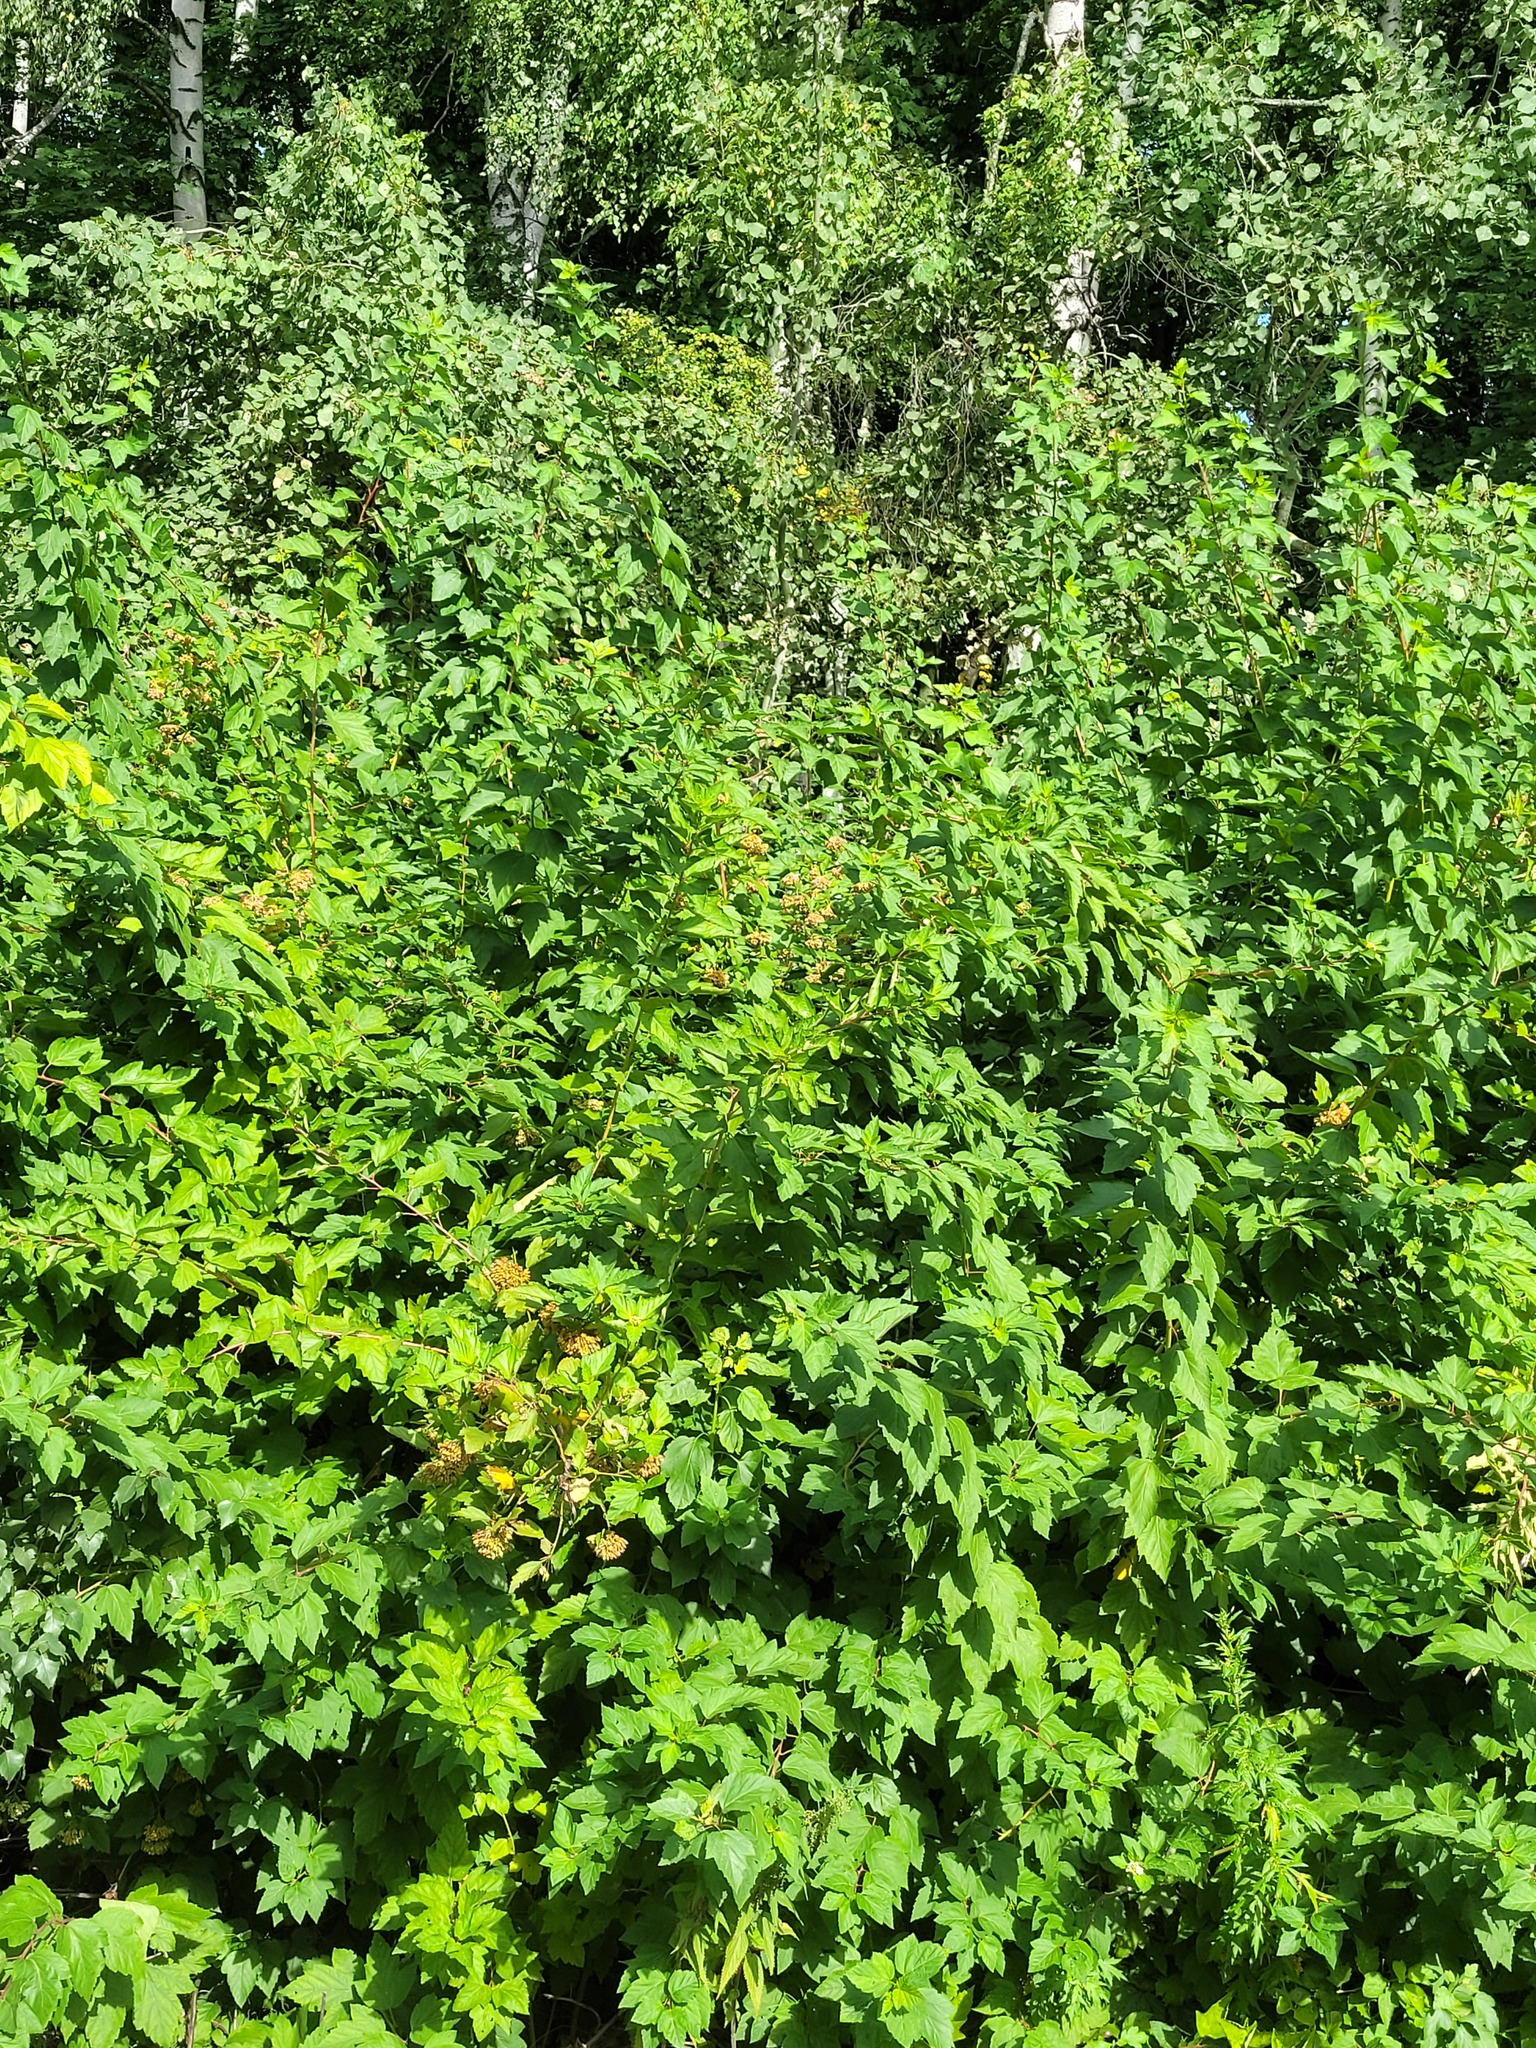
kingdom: Plantae
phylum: Tracheophyta
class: Magnoliopsida
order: Rosales
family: Rosaceae
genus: Physocarpus
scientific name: Physocarpus opulifolius
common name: Ninebark
